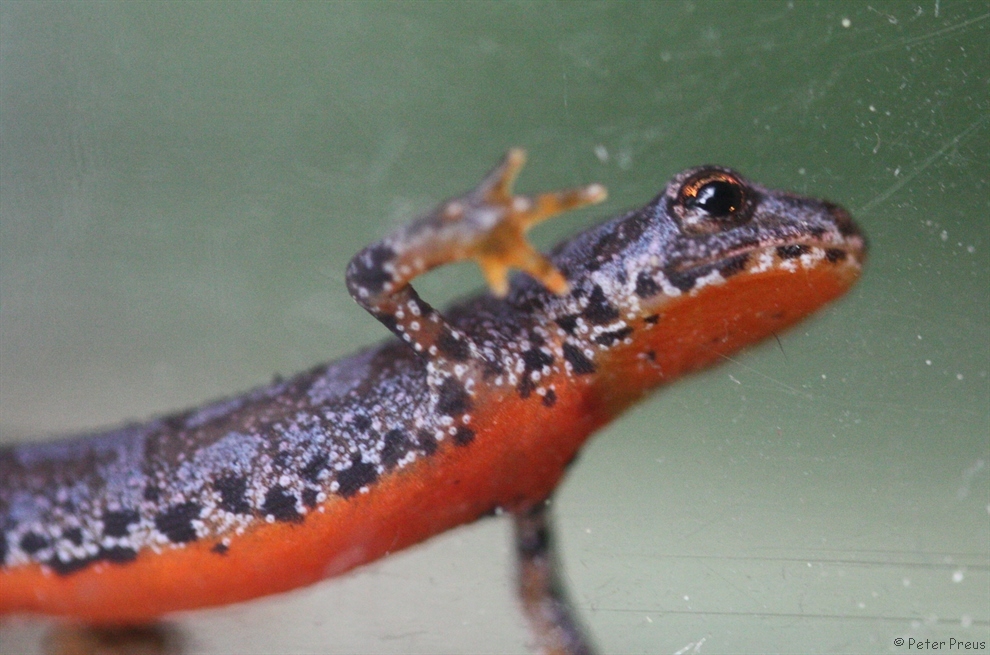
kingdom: Animalia
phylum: Chordata
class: Amphibia
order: Caudata
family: Salamandridae
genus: Ichthyosaura
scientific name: Ichthyosaura alpestris
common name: Alpine newt
